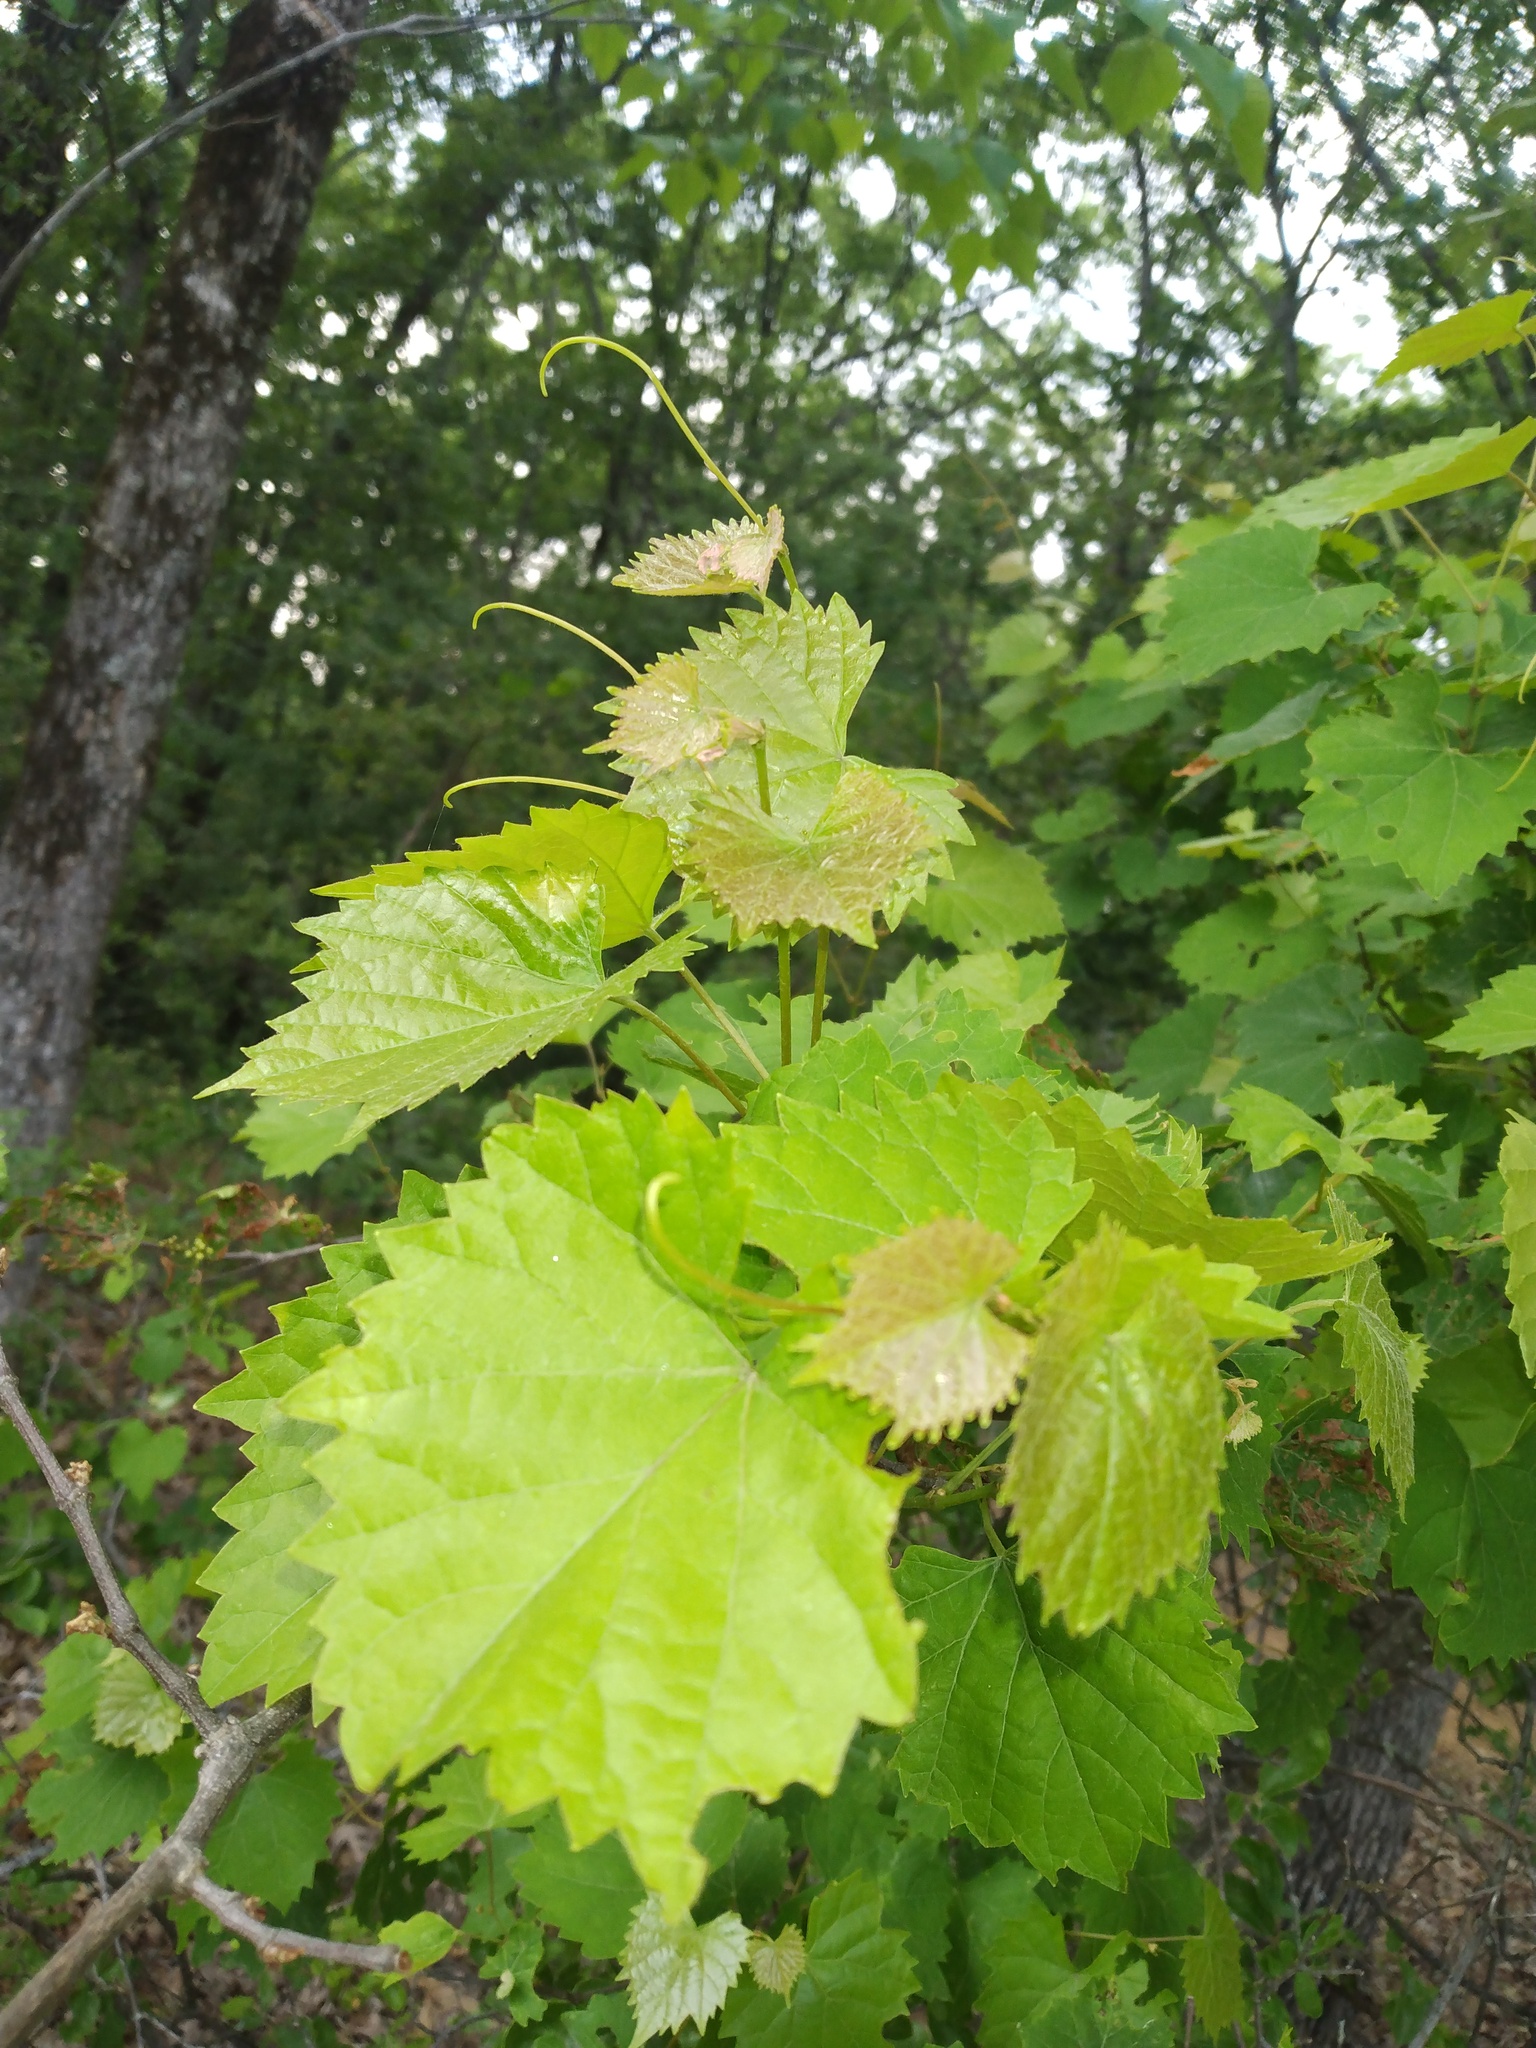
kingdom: Plantae
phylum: Tracheophyta
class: Magnoliopsida
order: Vitales
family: Vitaceae
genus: Vitis
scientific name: Vitis rotundifolia
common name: Muscadine grape
